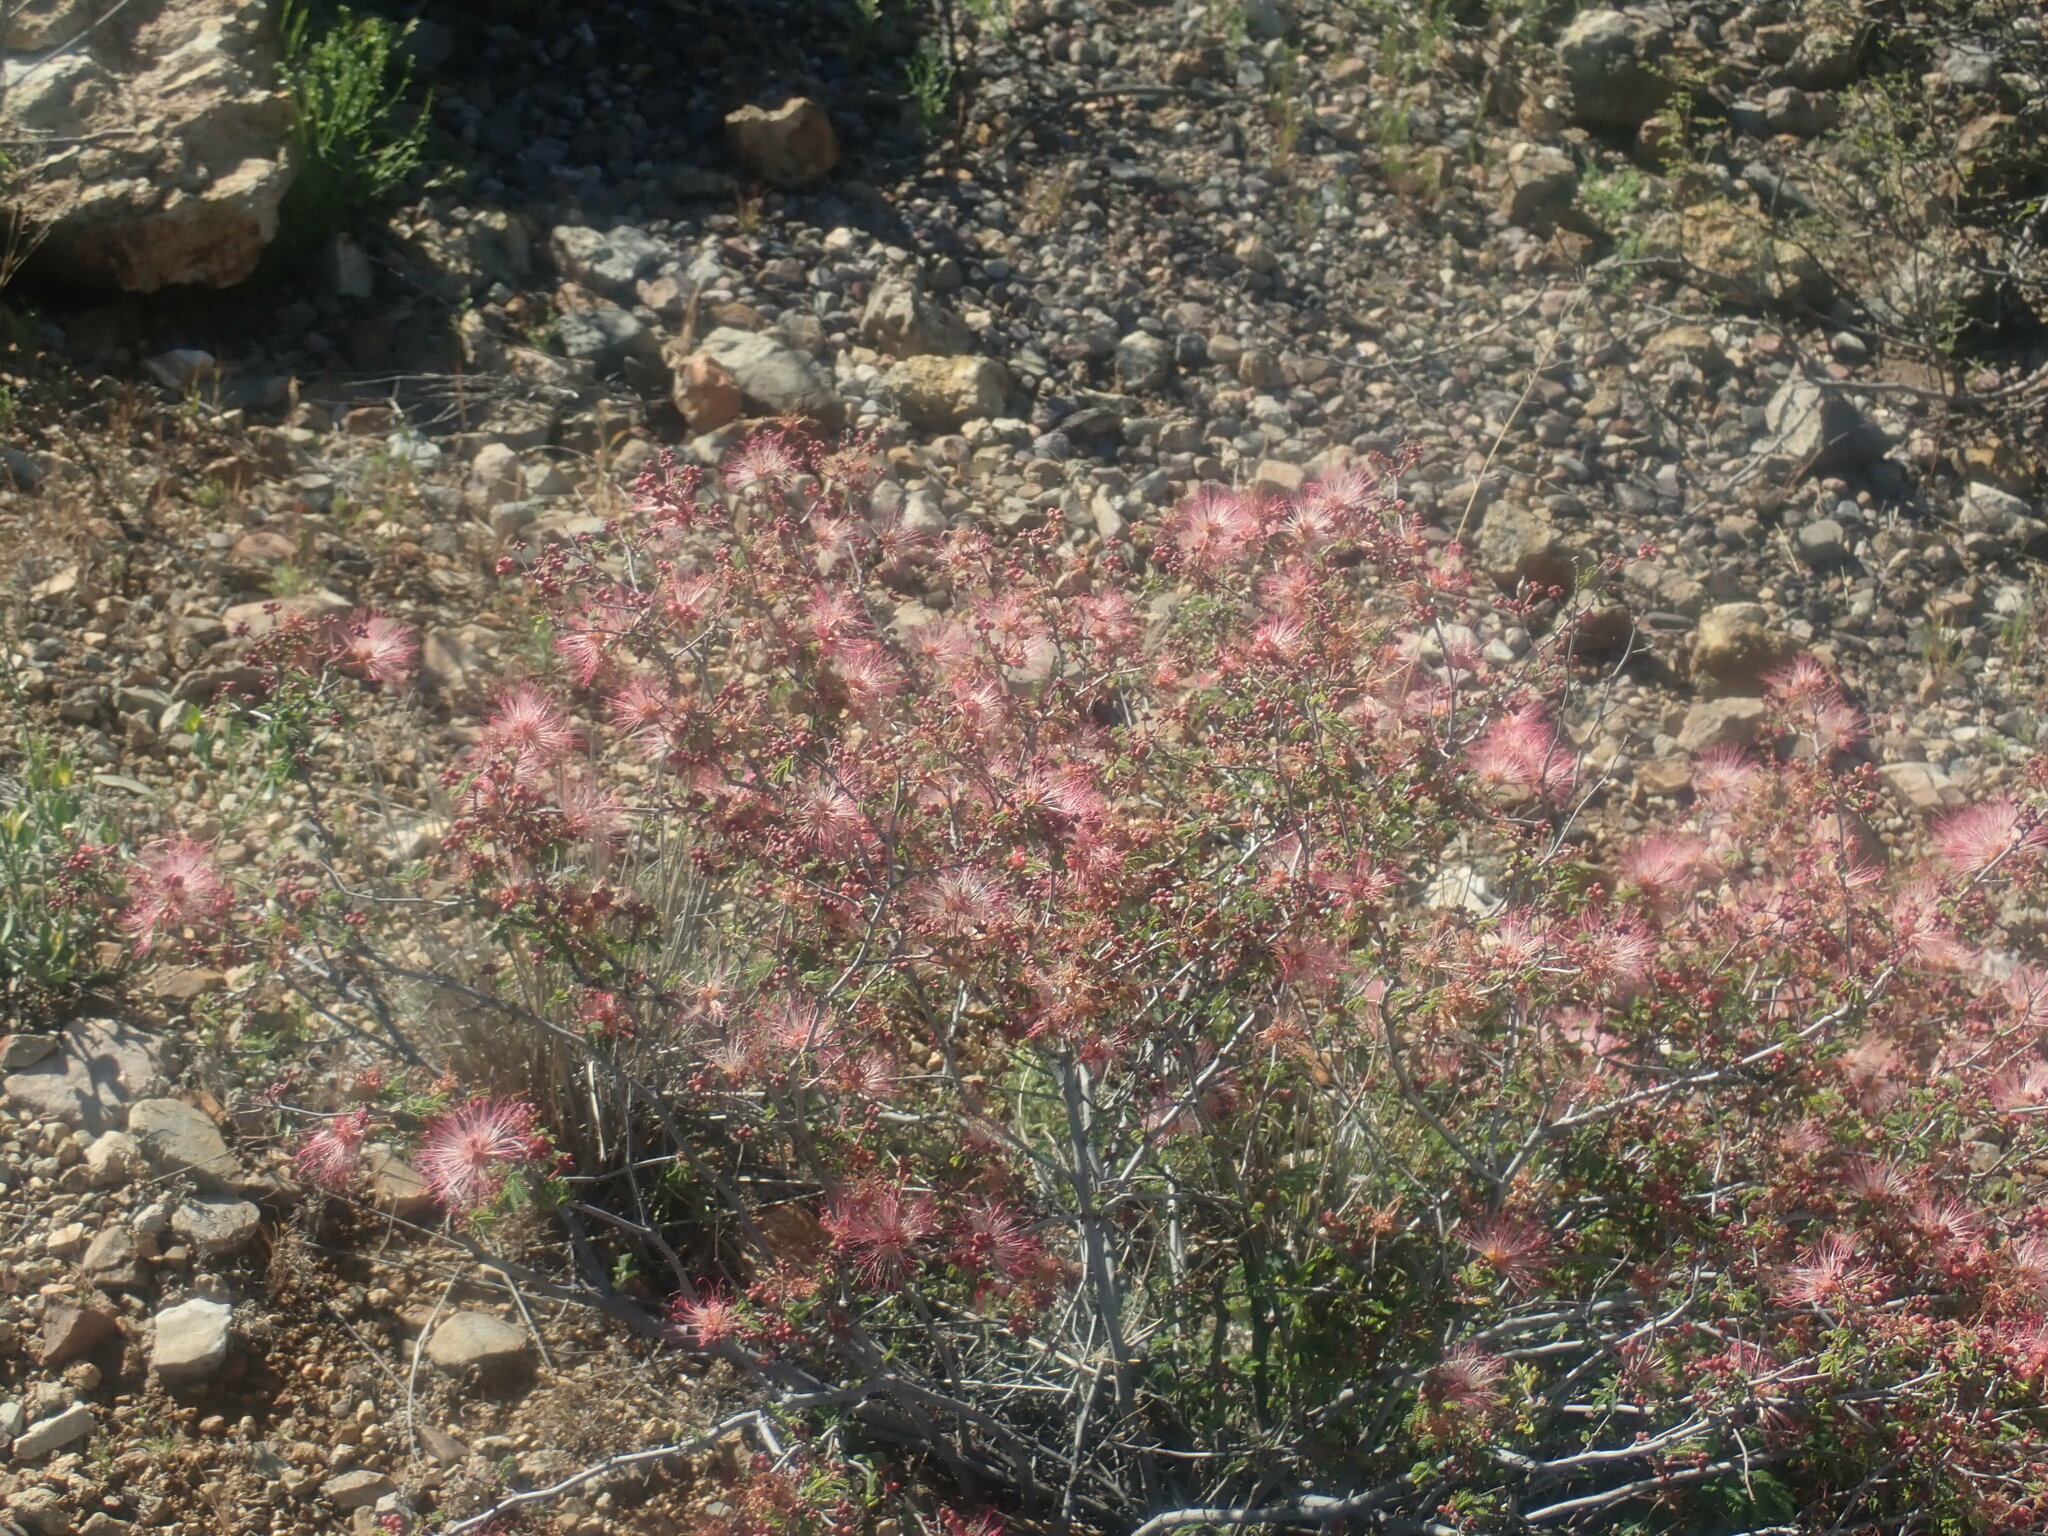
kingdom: Plantae
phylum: Tracheophyta
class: Magnoliopsida
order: Fabales
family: Fabaceae
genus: Calliandra
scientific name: Calliandra eriophylla
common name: Fairy-duster
